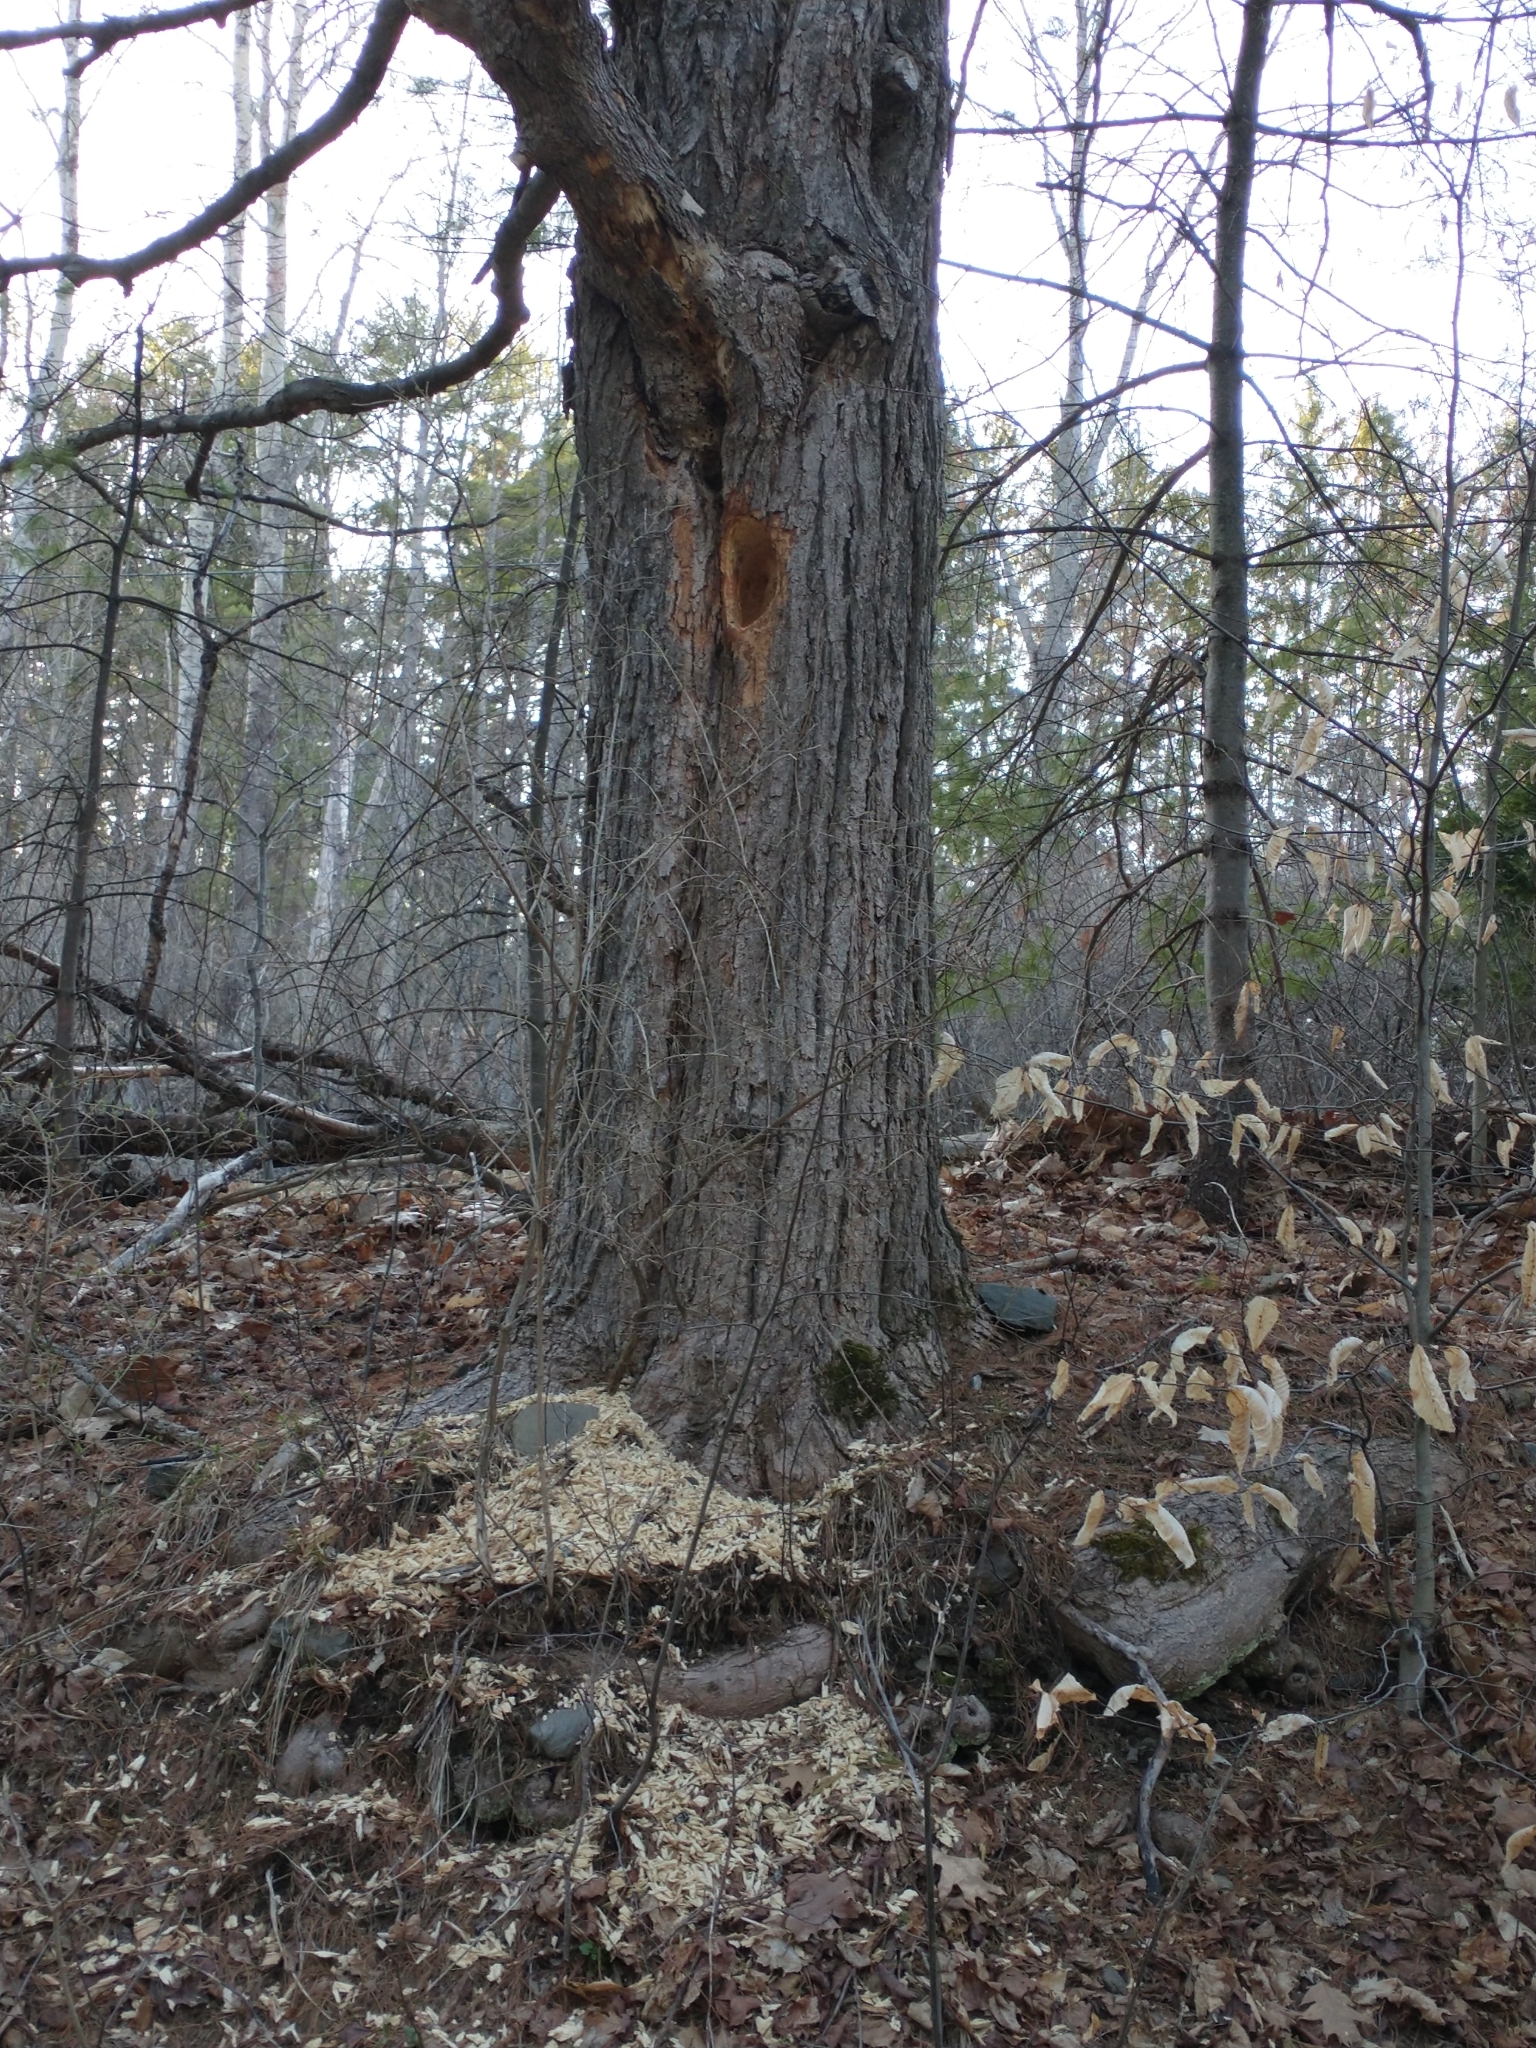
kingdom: Animalia
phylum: Chordata
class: Aves
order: Piciformes
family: Picidae
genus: Dryocopus
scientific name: Dryocopus pileatus
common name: Pileated woodpecker
